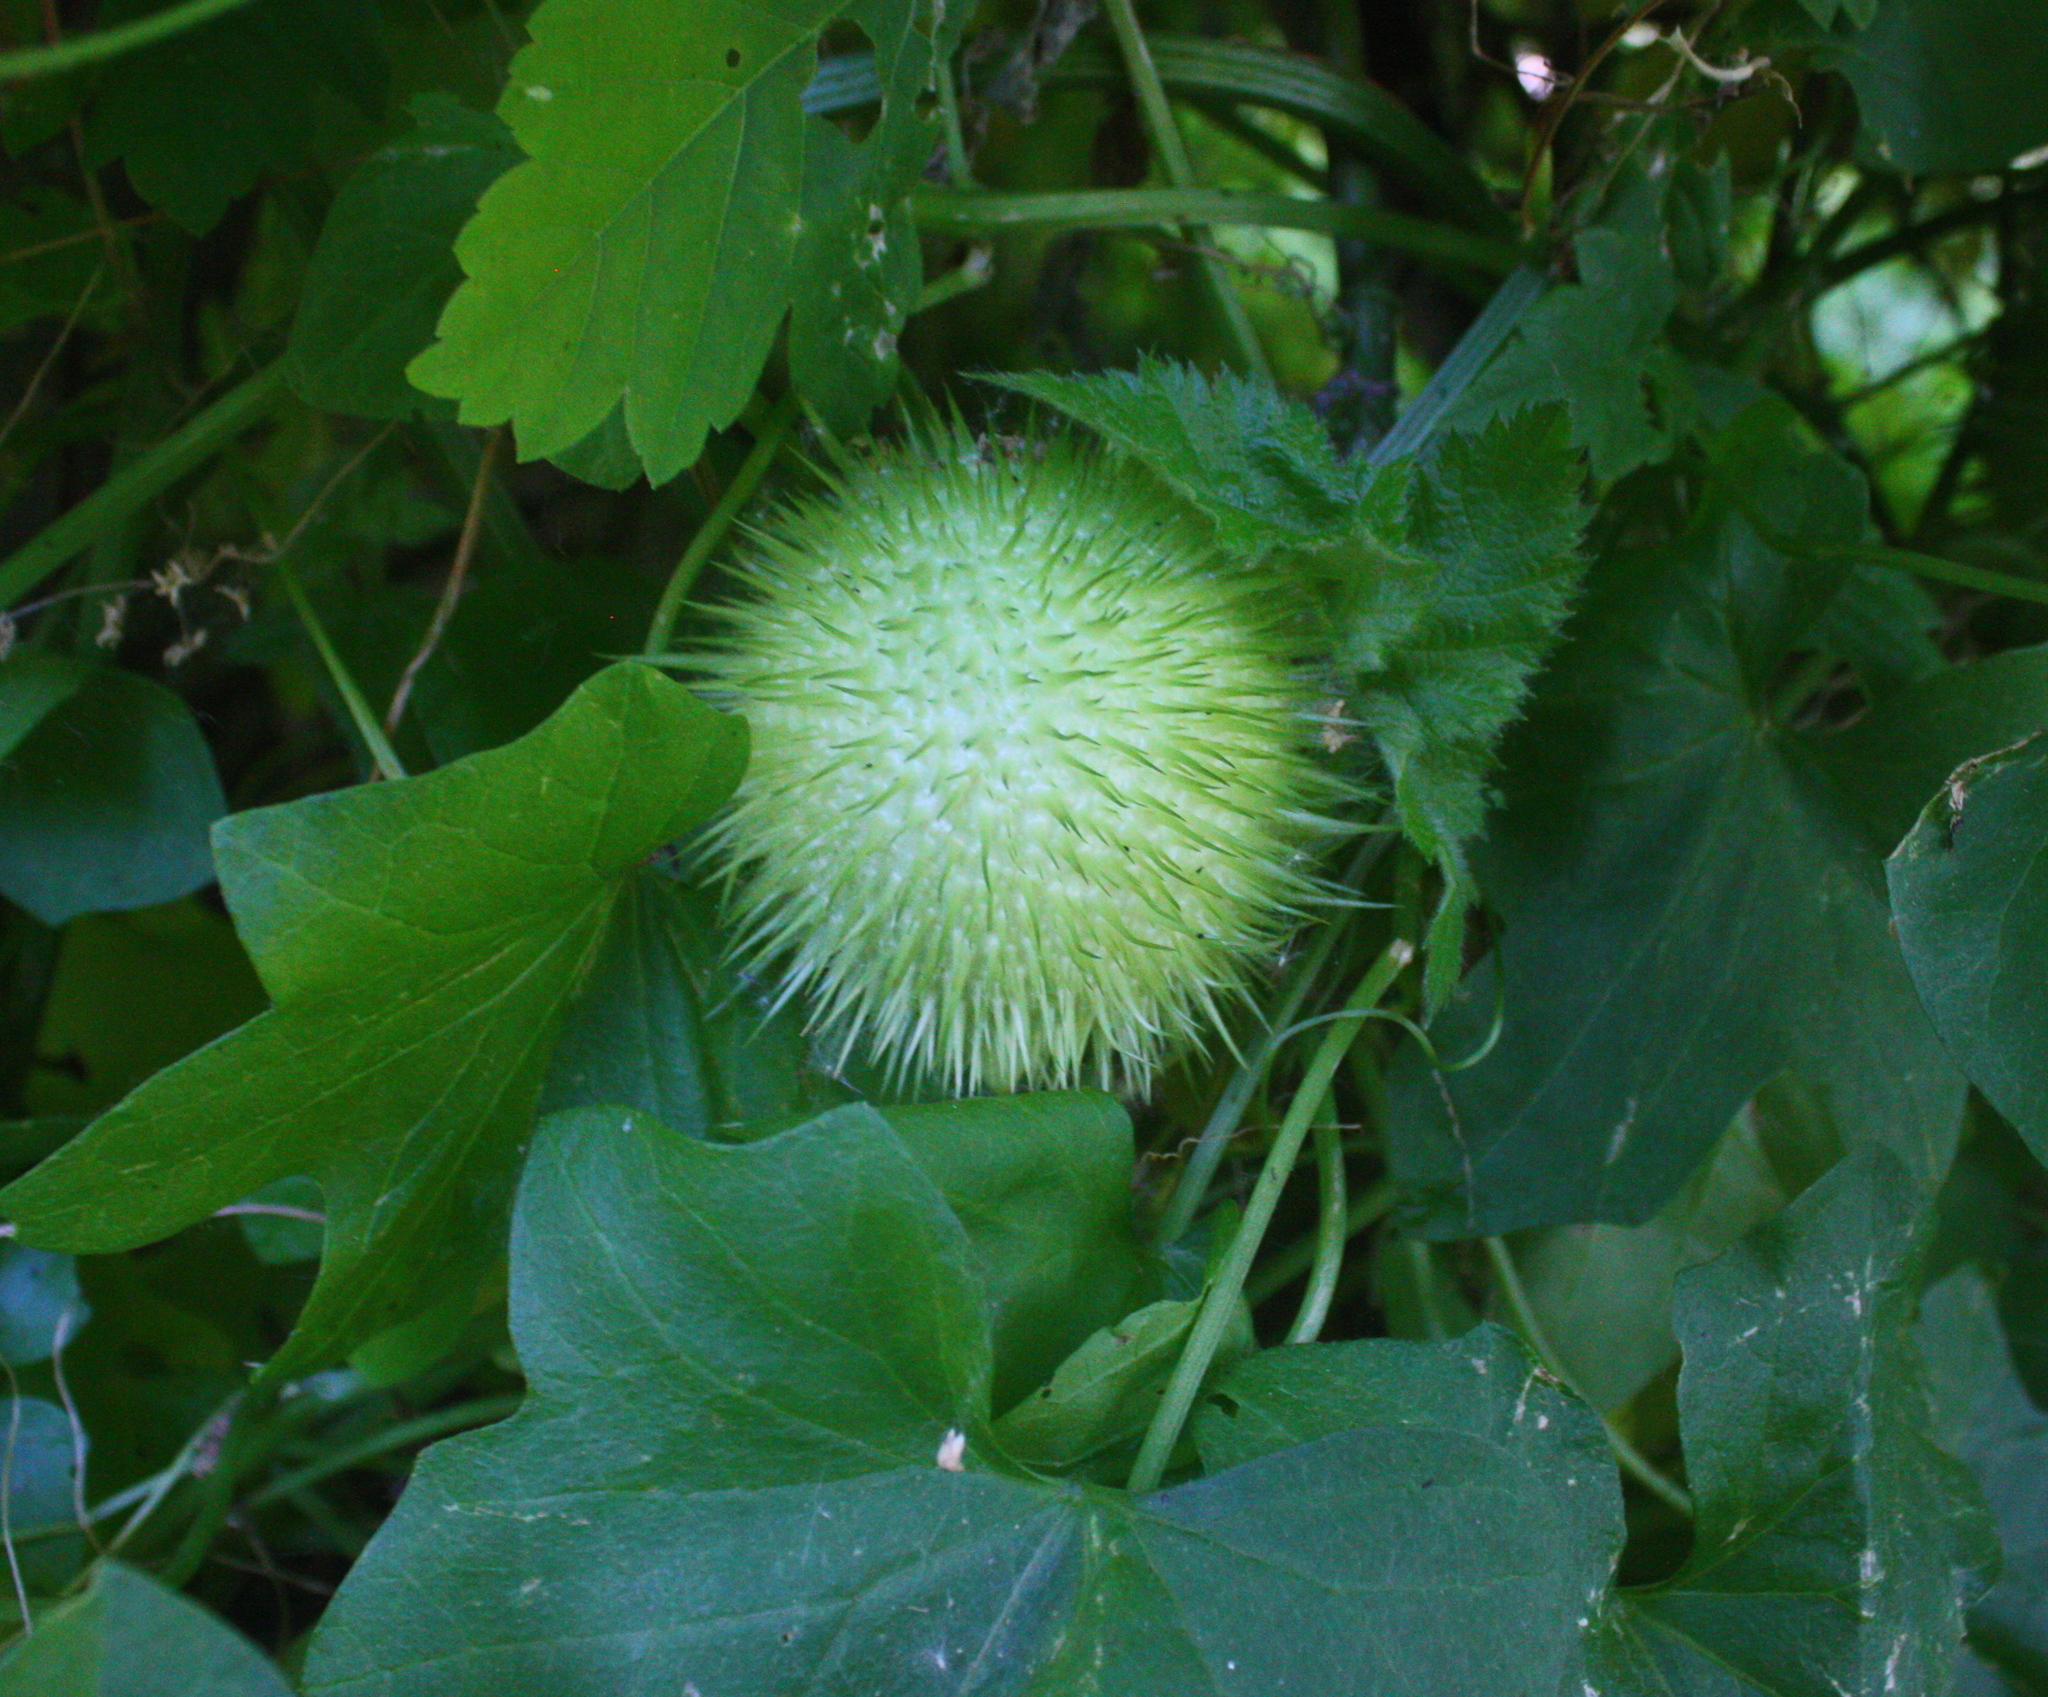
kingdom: Plantae
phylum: Tracheophyta
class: Magnoliopsida
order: Cucurbitales
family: Cucurbitaceae
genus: Marah
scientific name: Marah fabacea
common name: California manroot
